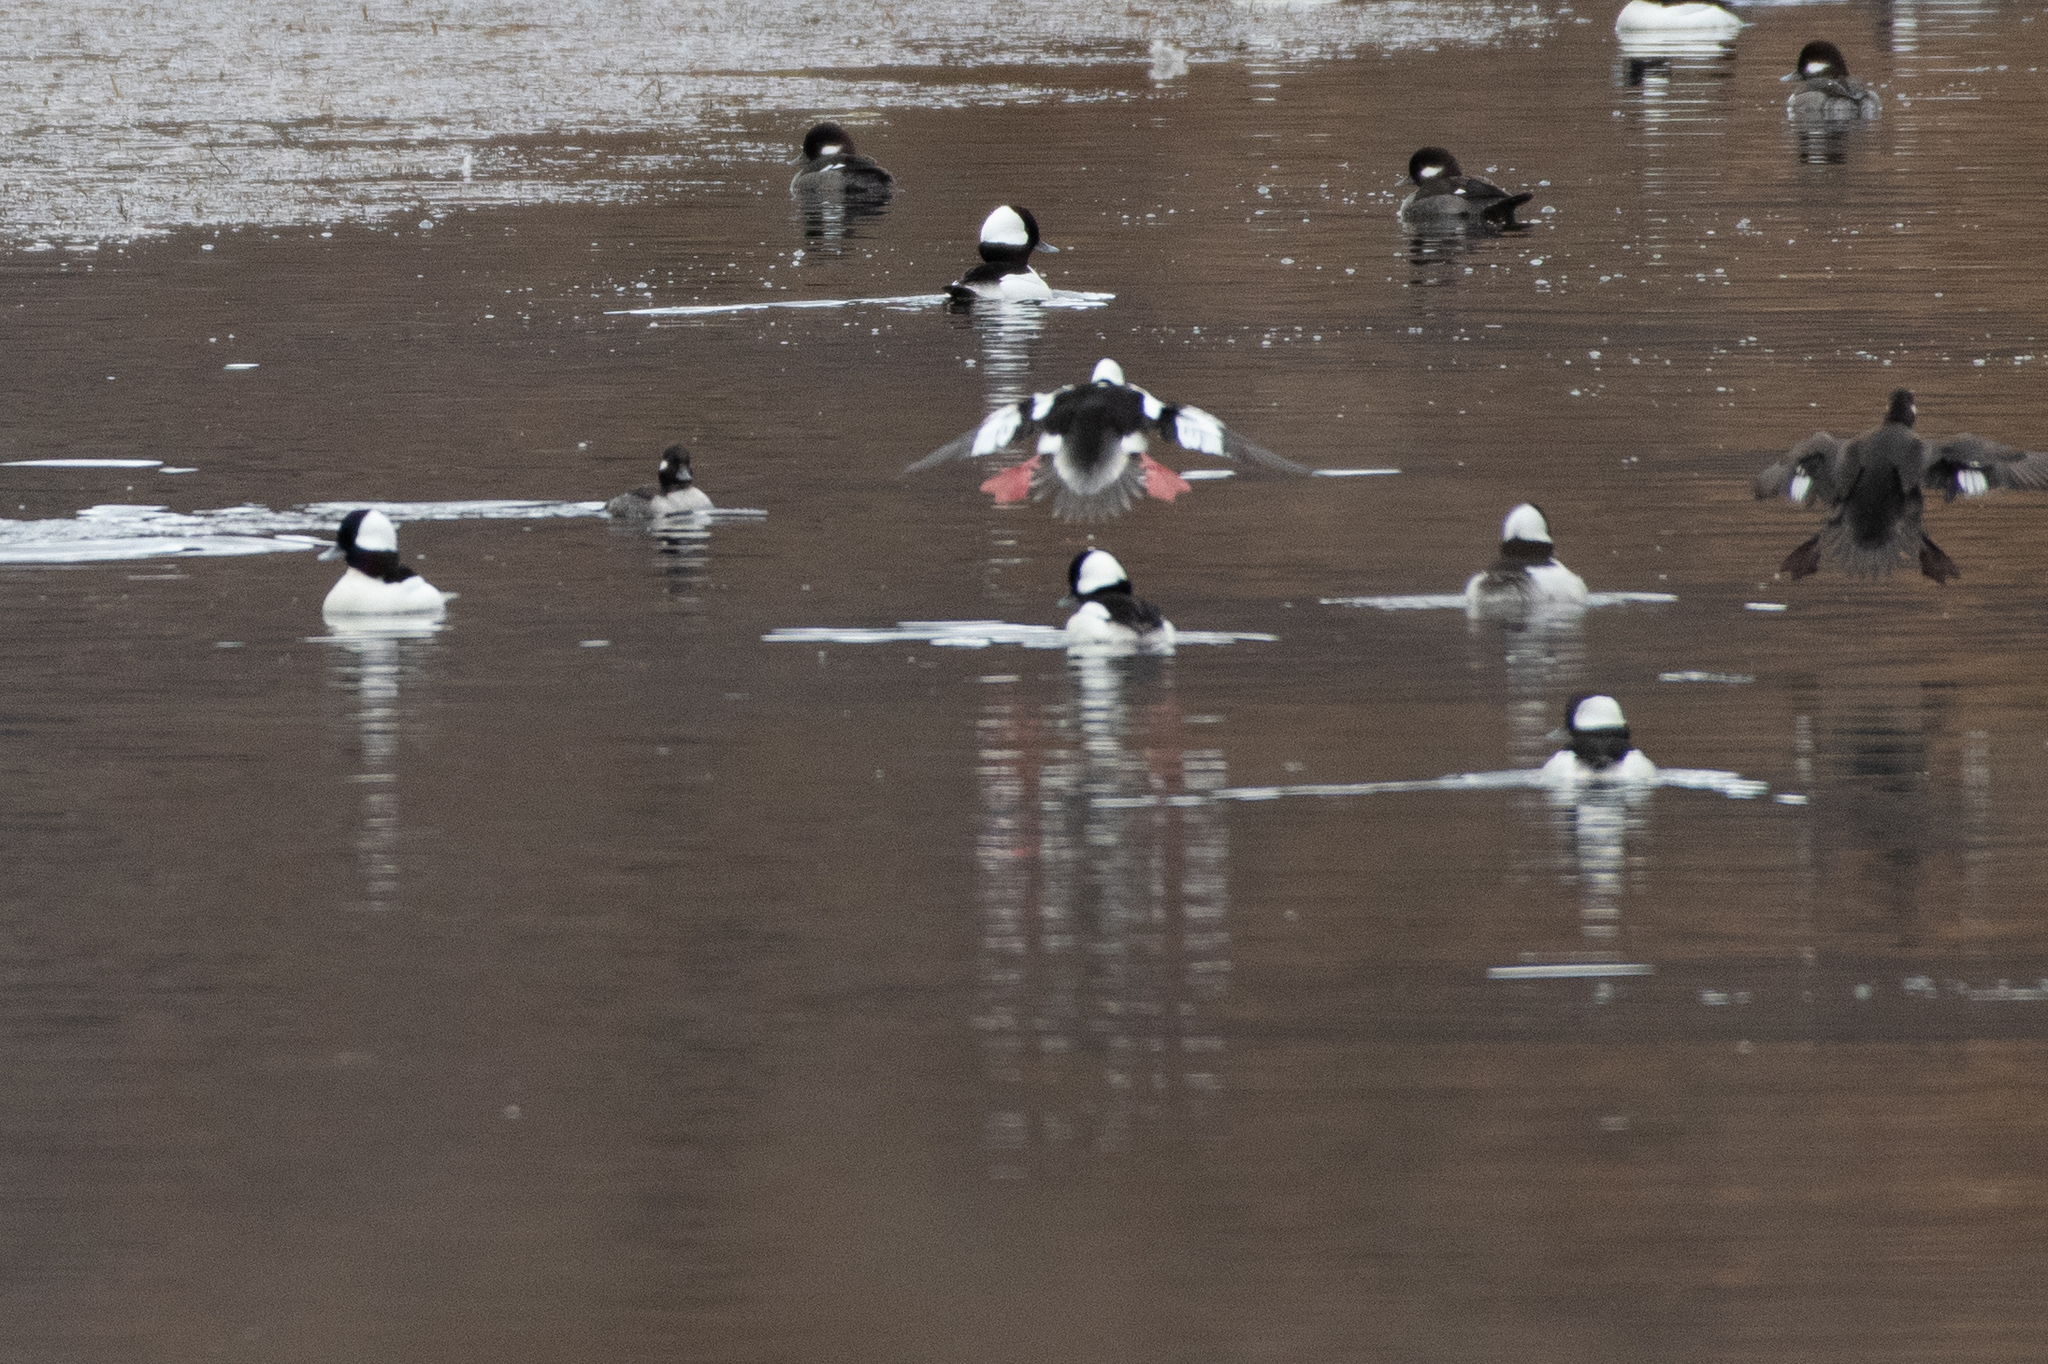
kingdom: Animalia
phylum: Chordata
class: Aves
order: Anseriformes
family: Anatidae
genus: Bucephala
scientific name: Bucephala albeola
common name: Bufflehead
